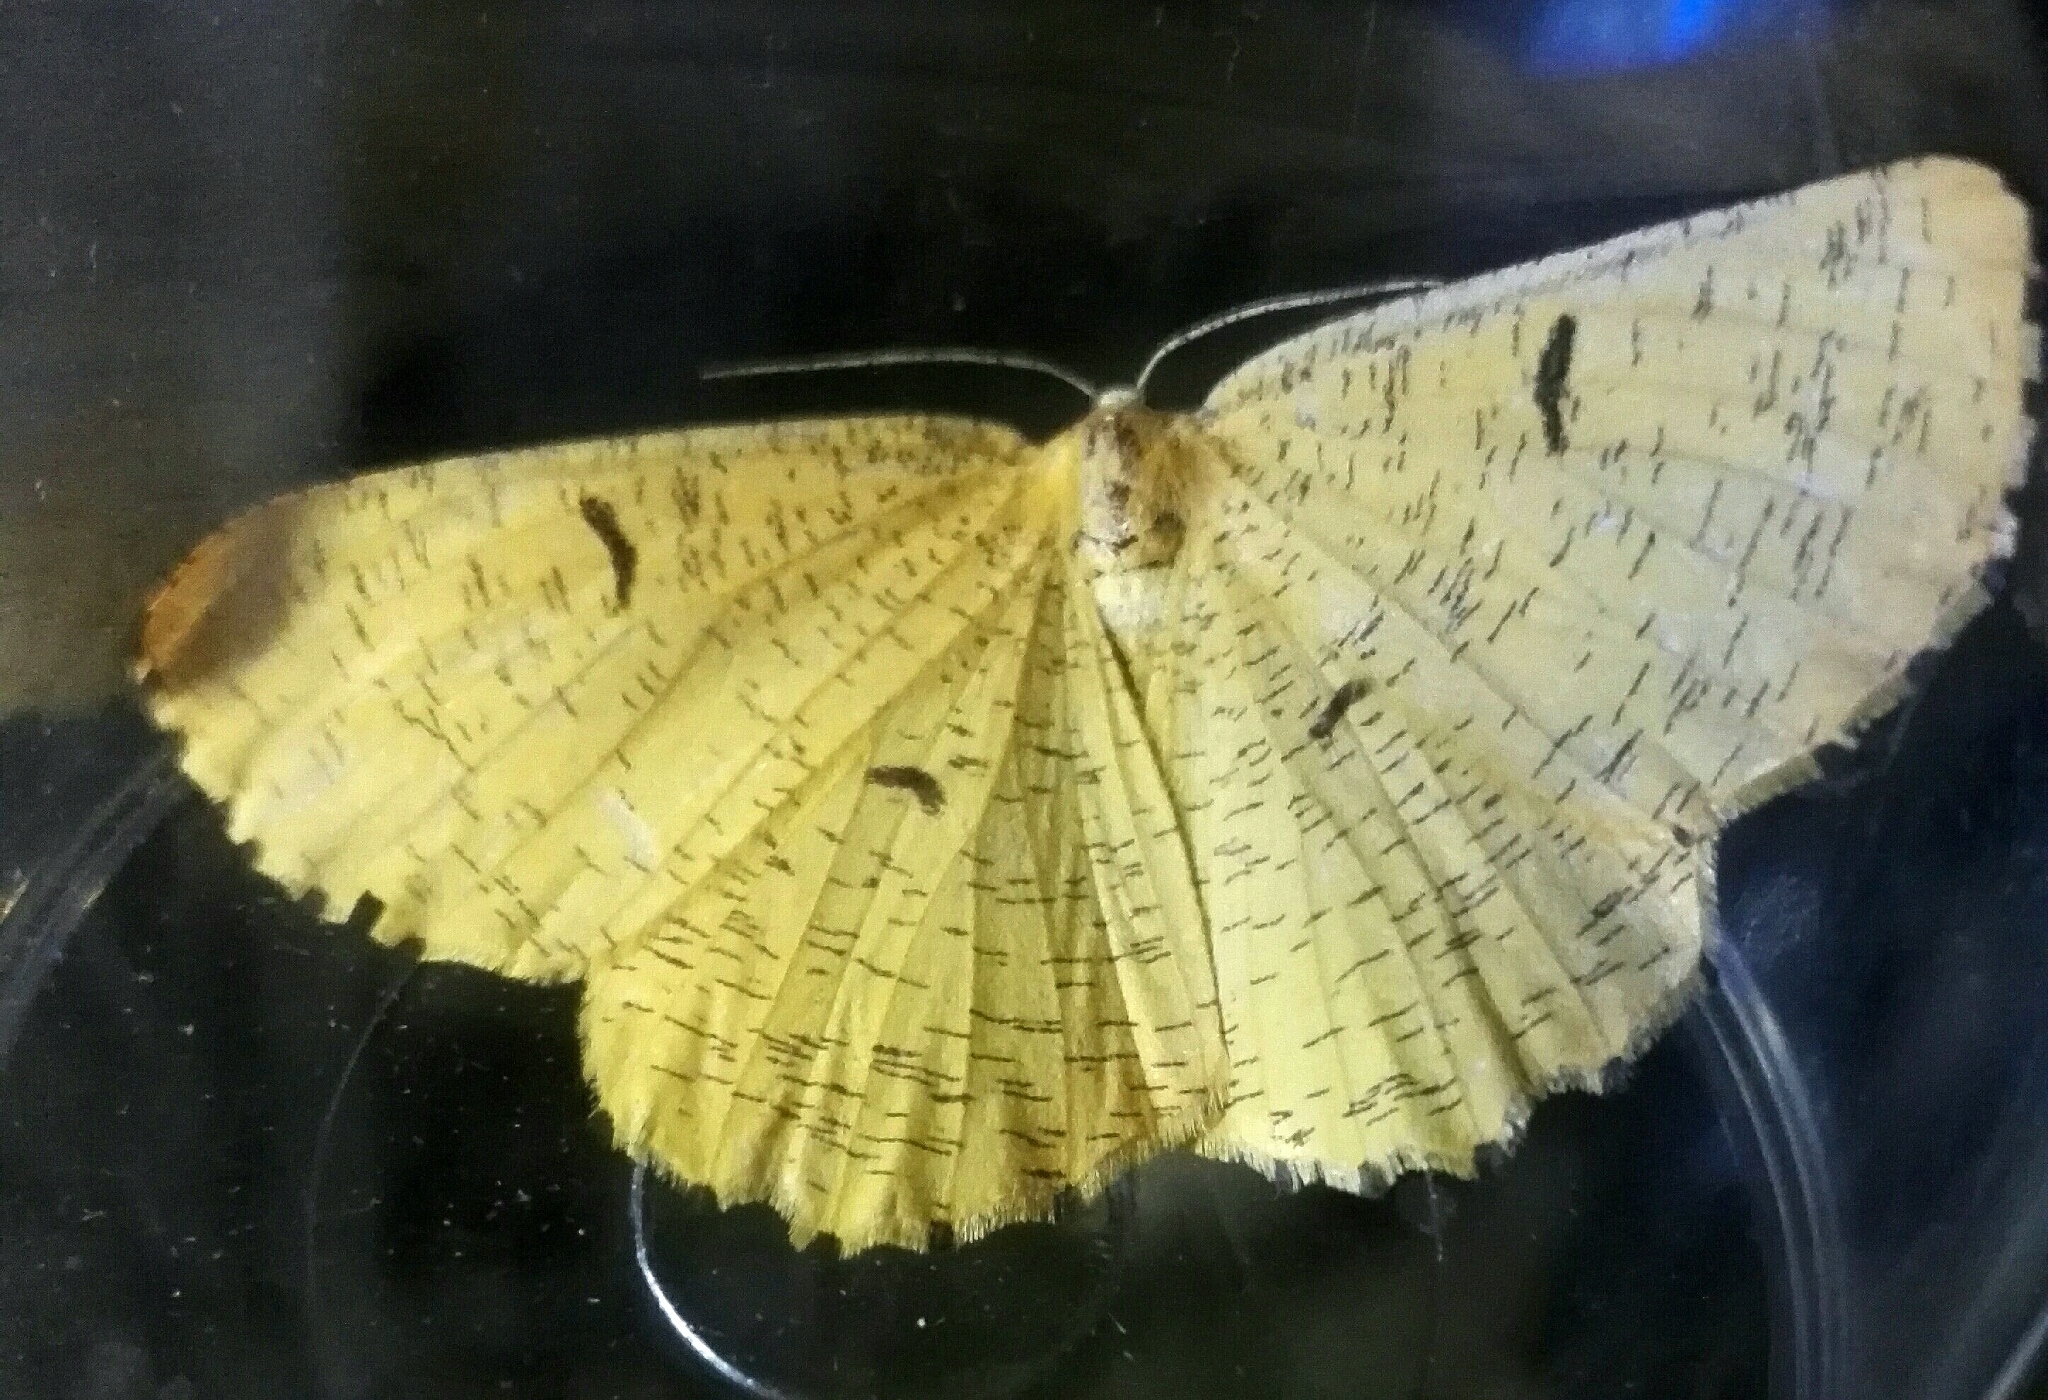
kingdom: Animalia
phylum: Arthropoda
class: Insecta
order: Lepidoptera
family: Geometridae
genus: Angerona
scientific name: Angerona prunaria
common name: Orange moth
